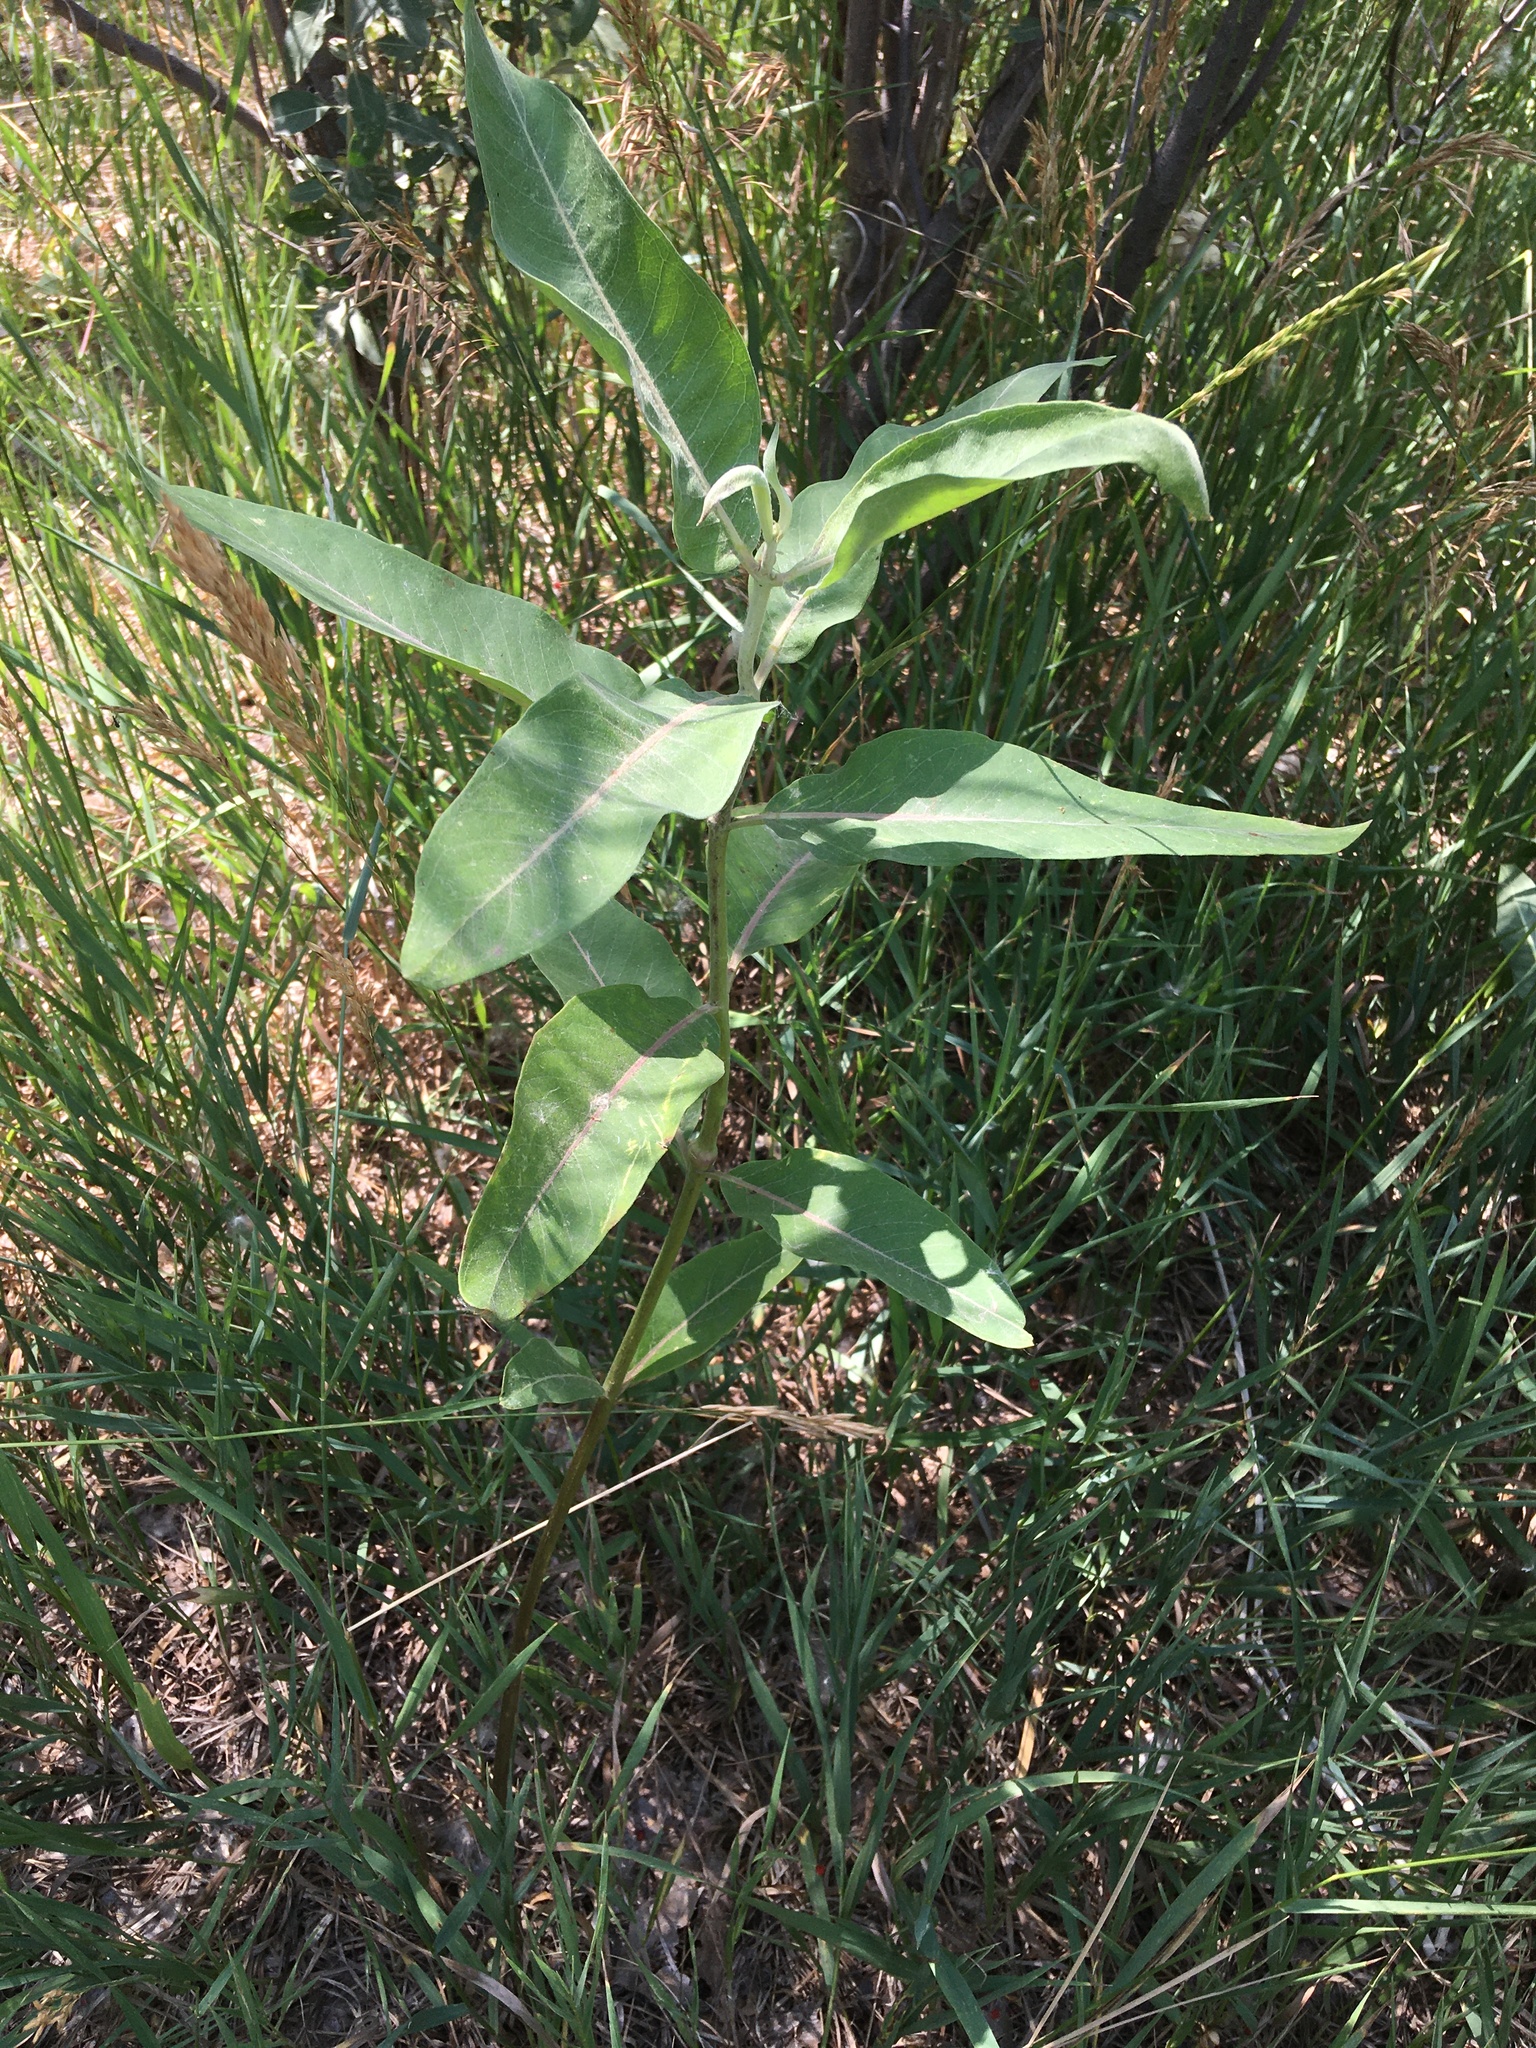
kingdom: Plantae
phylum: Tracheophyta
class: Magnoliopsida
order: Gentianales
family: Apocynaceae
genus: Asclepias
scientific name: Asclepias speciosa
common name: Showy milkweed
